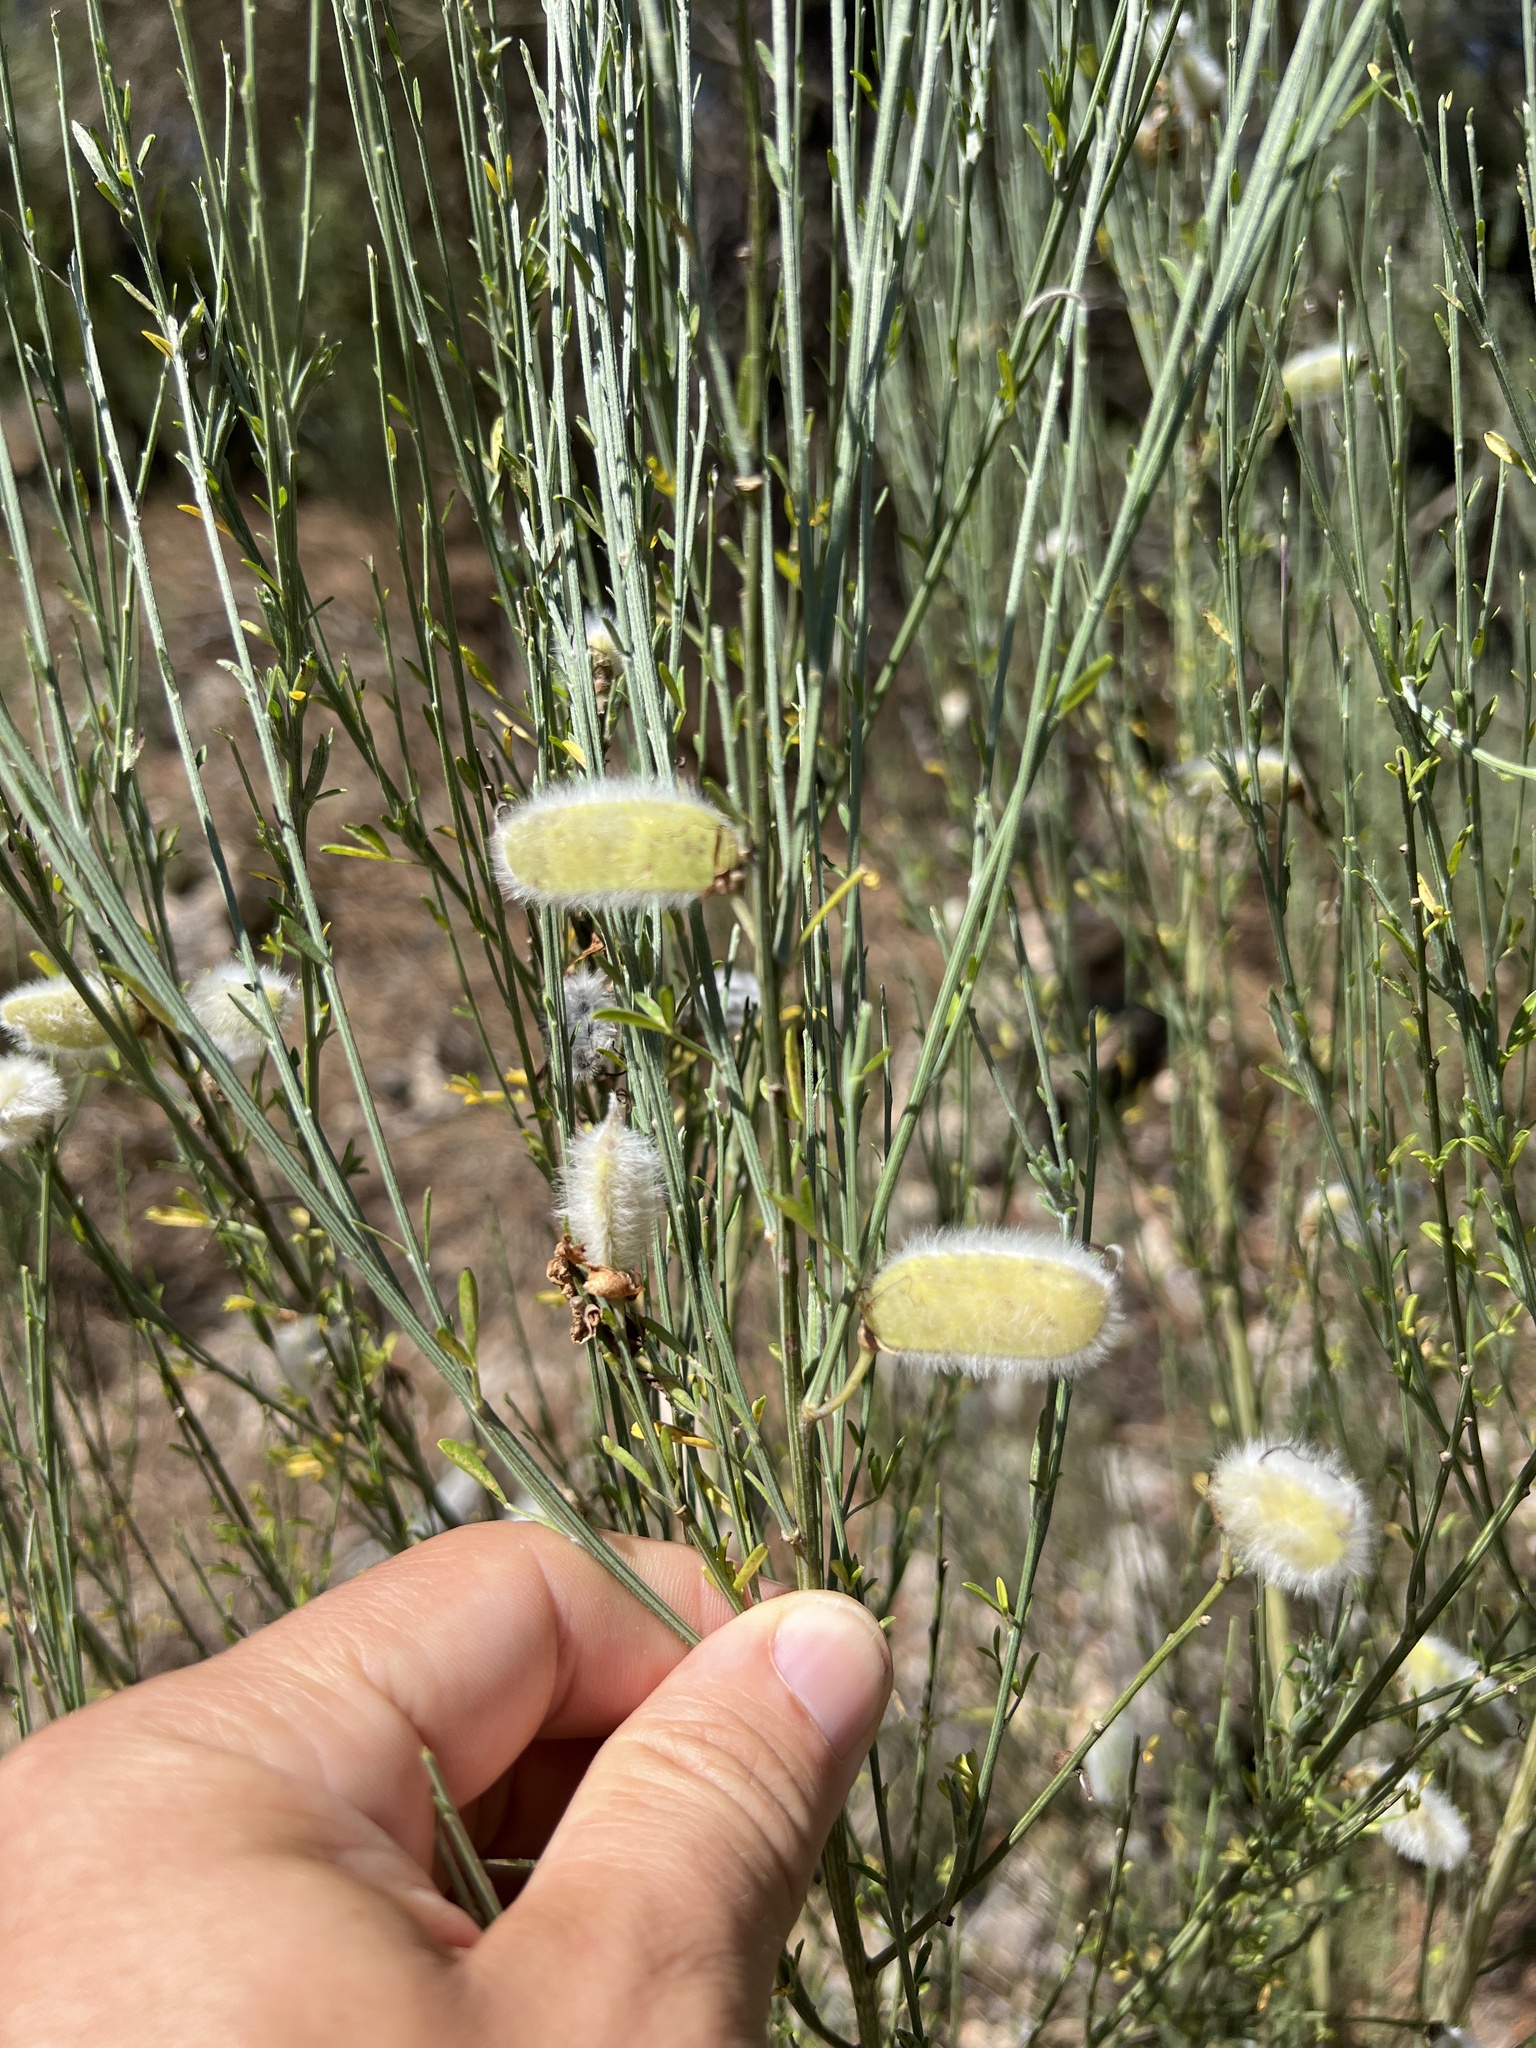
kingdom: Plantae
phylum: Tracheophyta
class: Magnoliopsida
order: Fabales
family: Fabaceae
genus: Cytisus
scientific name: Cytisus striatus
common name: Hairy-fruited broom
